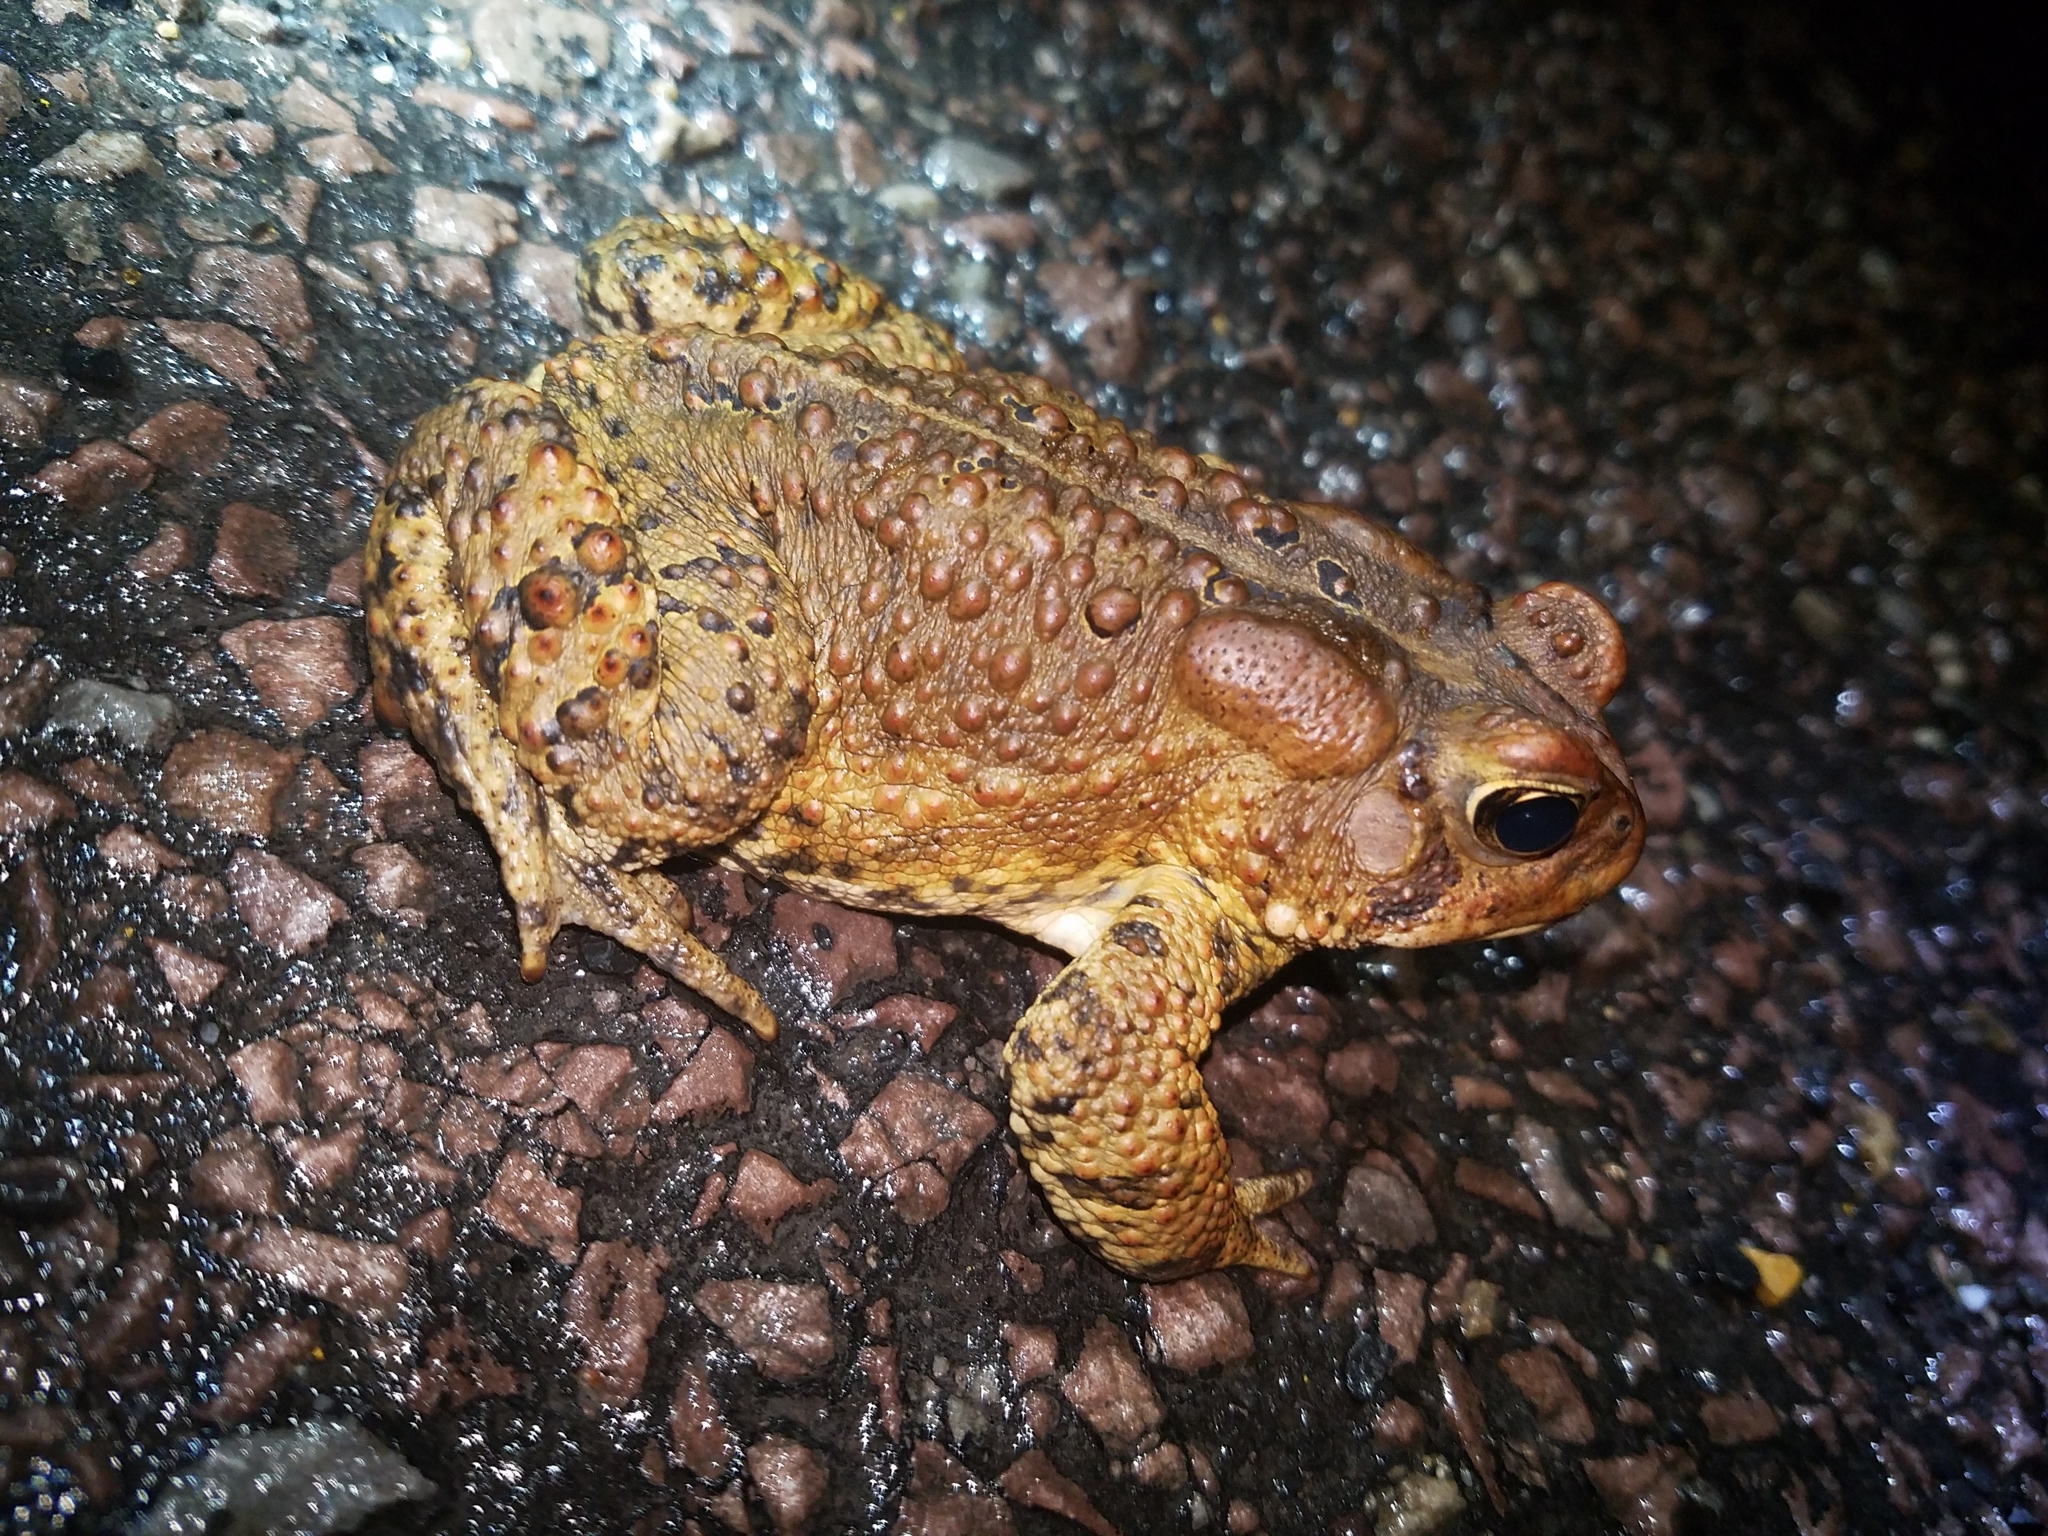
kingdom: Animalia
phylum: Chordata
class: Amphibia
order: Anura
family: Bufonidae
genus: Anaxyrus
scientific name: Anaxyrus americanus
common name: American toad
